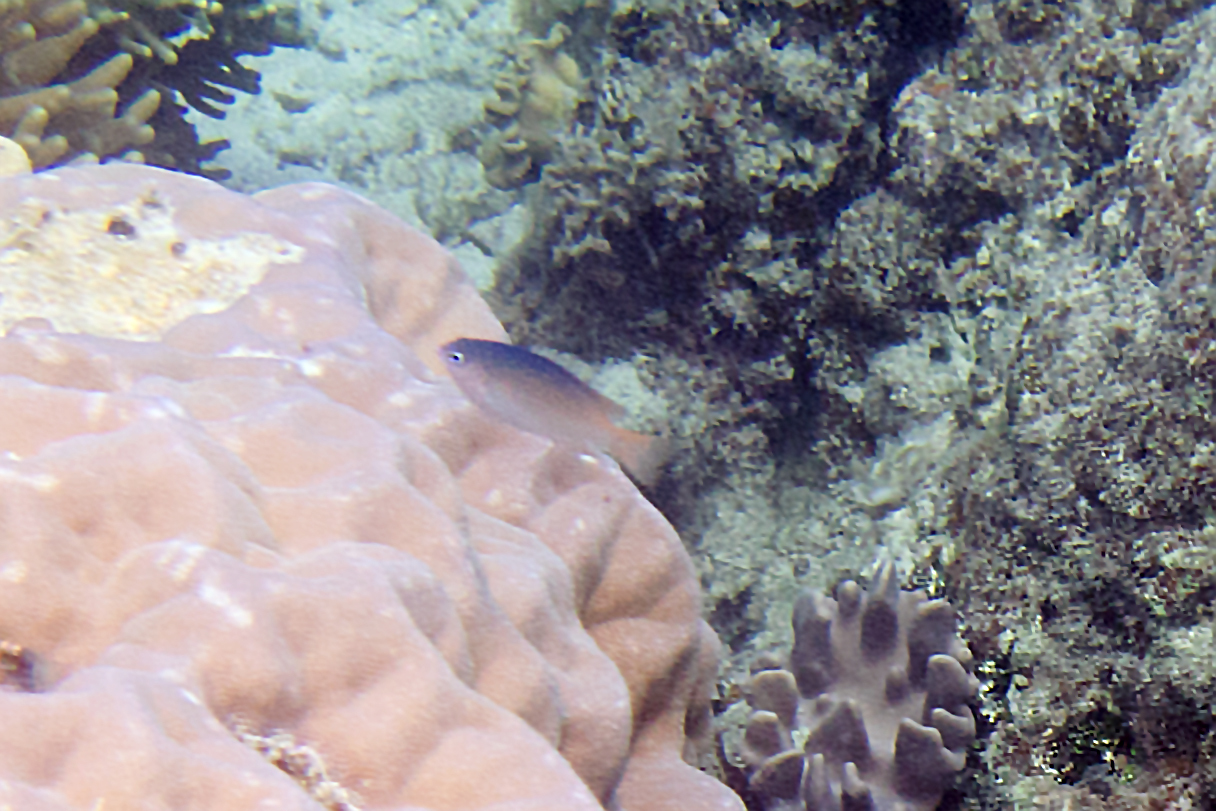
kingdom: Animalia
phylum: Chordata
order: Perciformes
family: Pomacentridae
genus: Chrysiptera
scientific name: Chrysiptera caesifrons
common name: Greyback damsel
